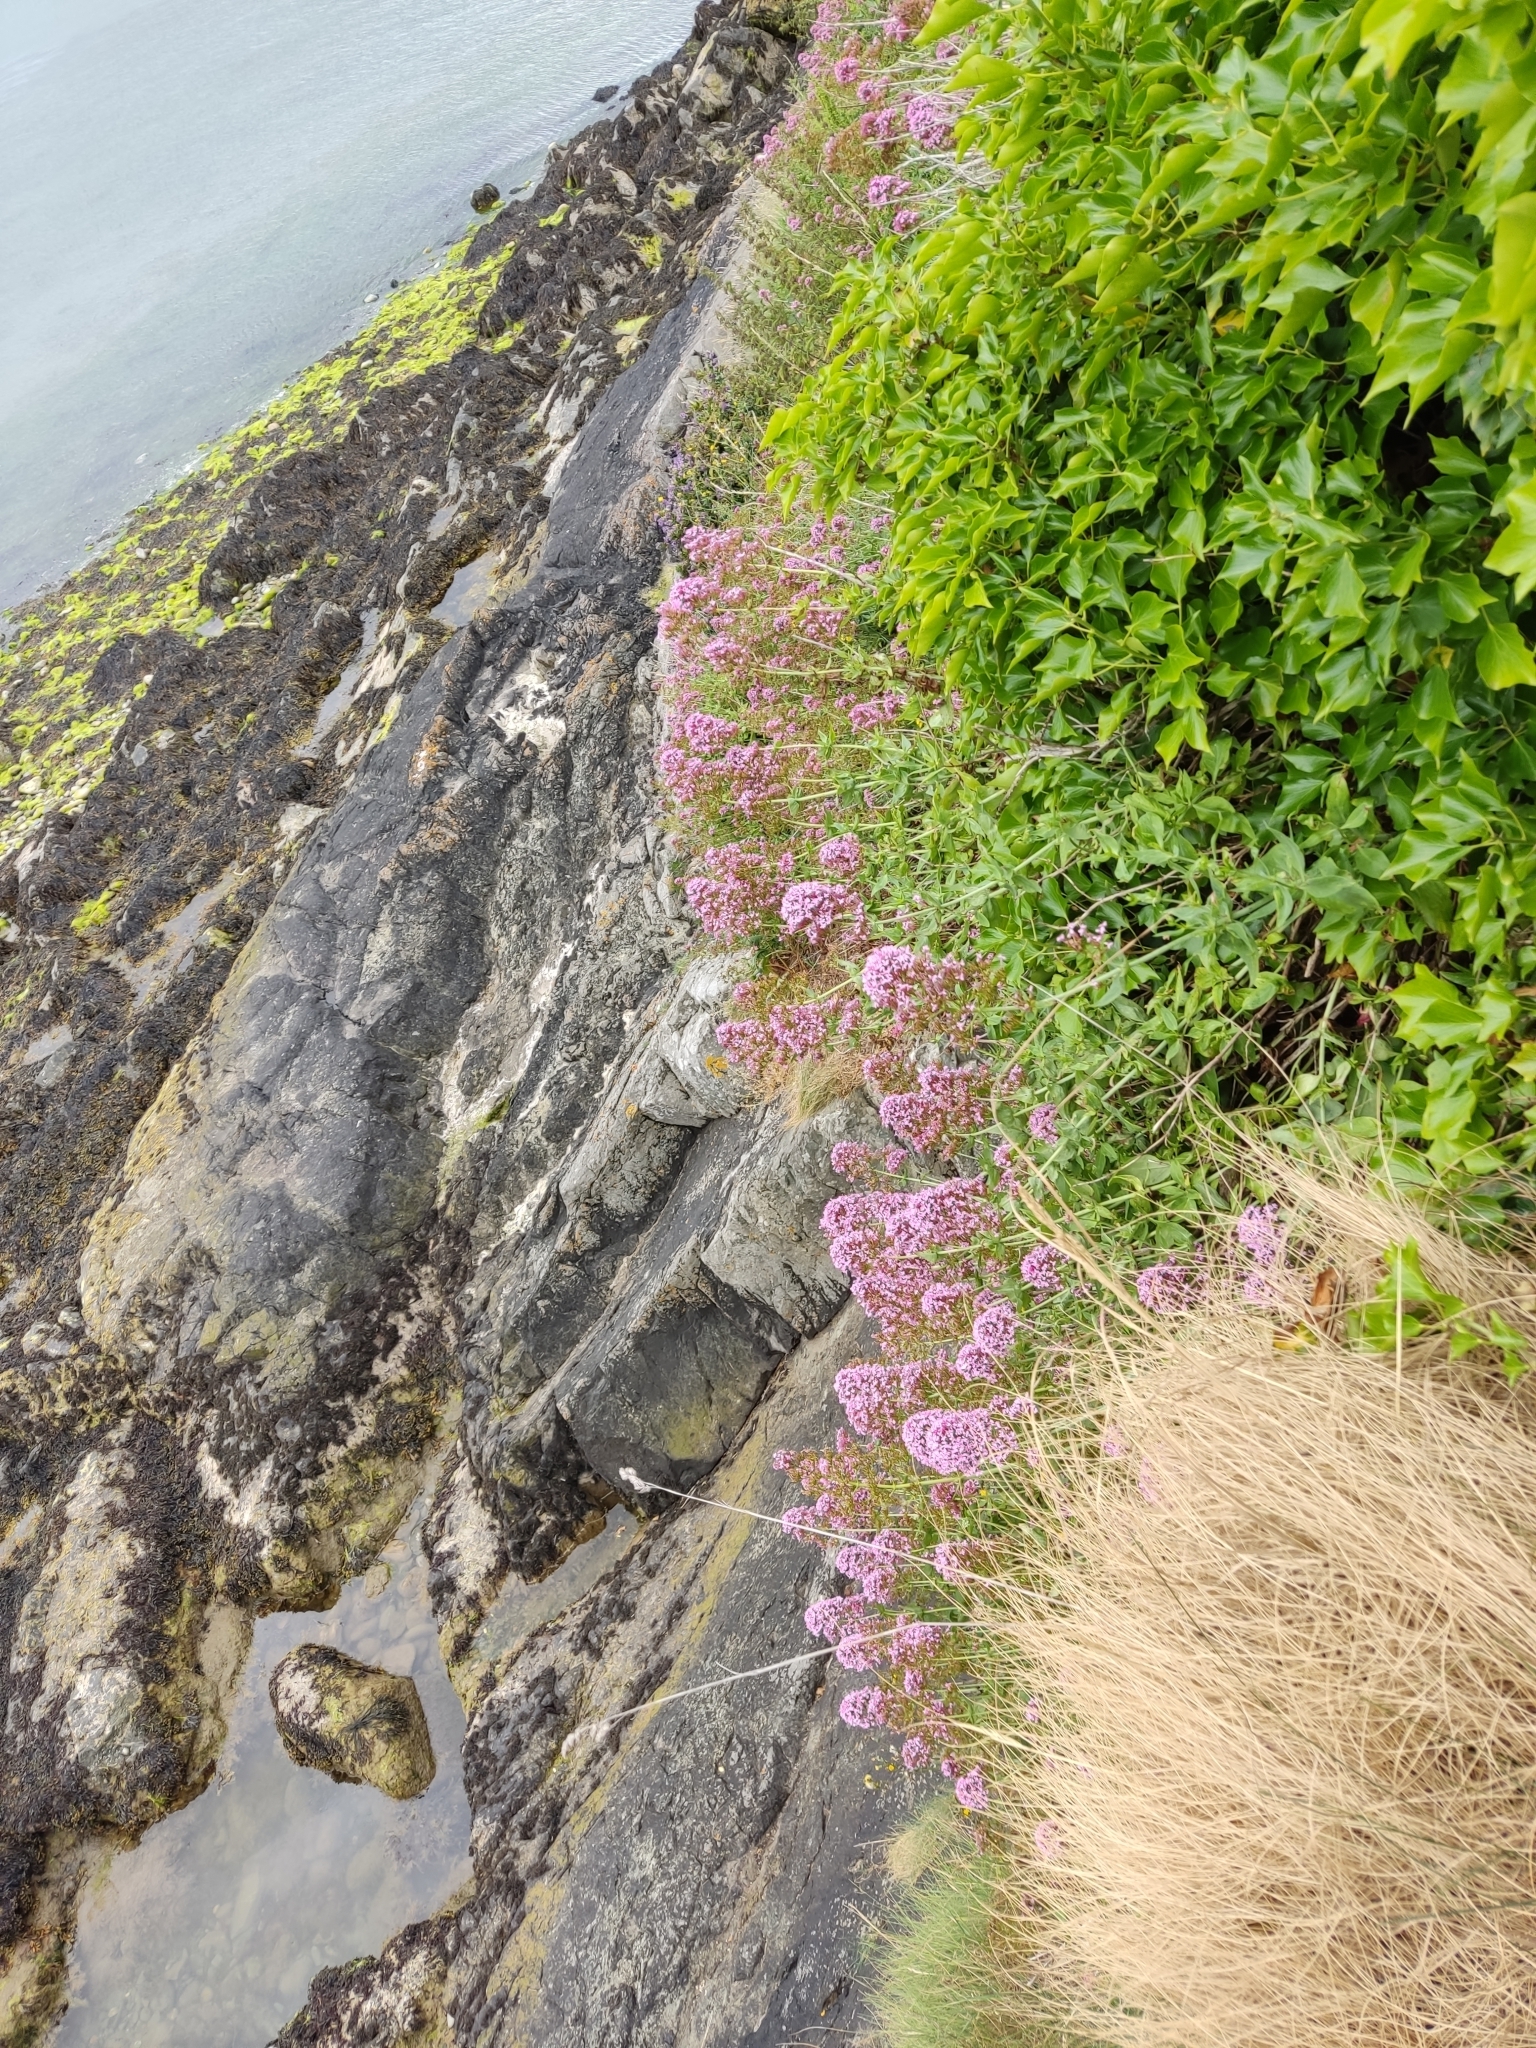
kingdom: Plantae
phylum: Tracheophyta
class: Magnoliopsida
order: Dipsacales
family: Caprifoliaceae
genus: Centranthus
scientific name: Centranthus ruber
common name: Red valerian
